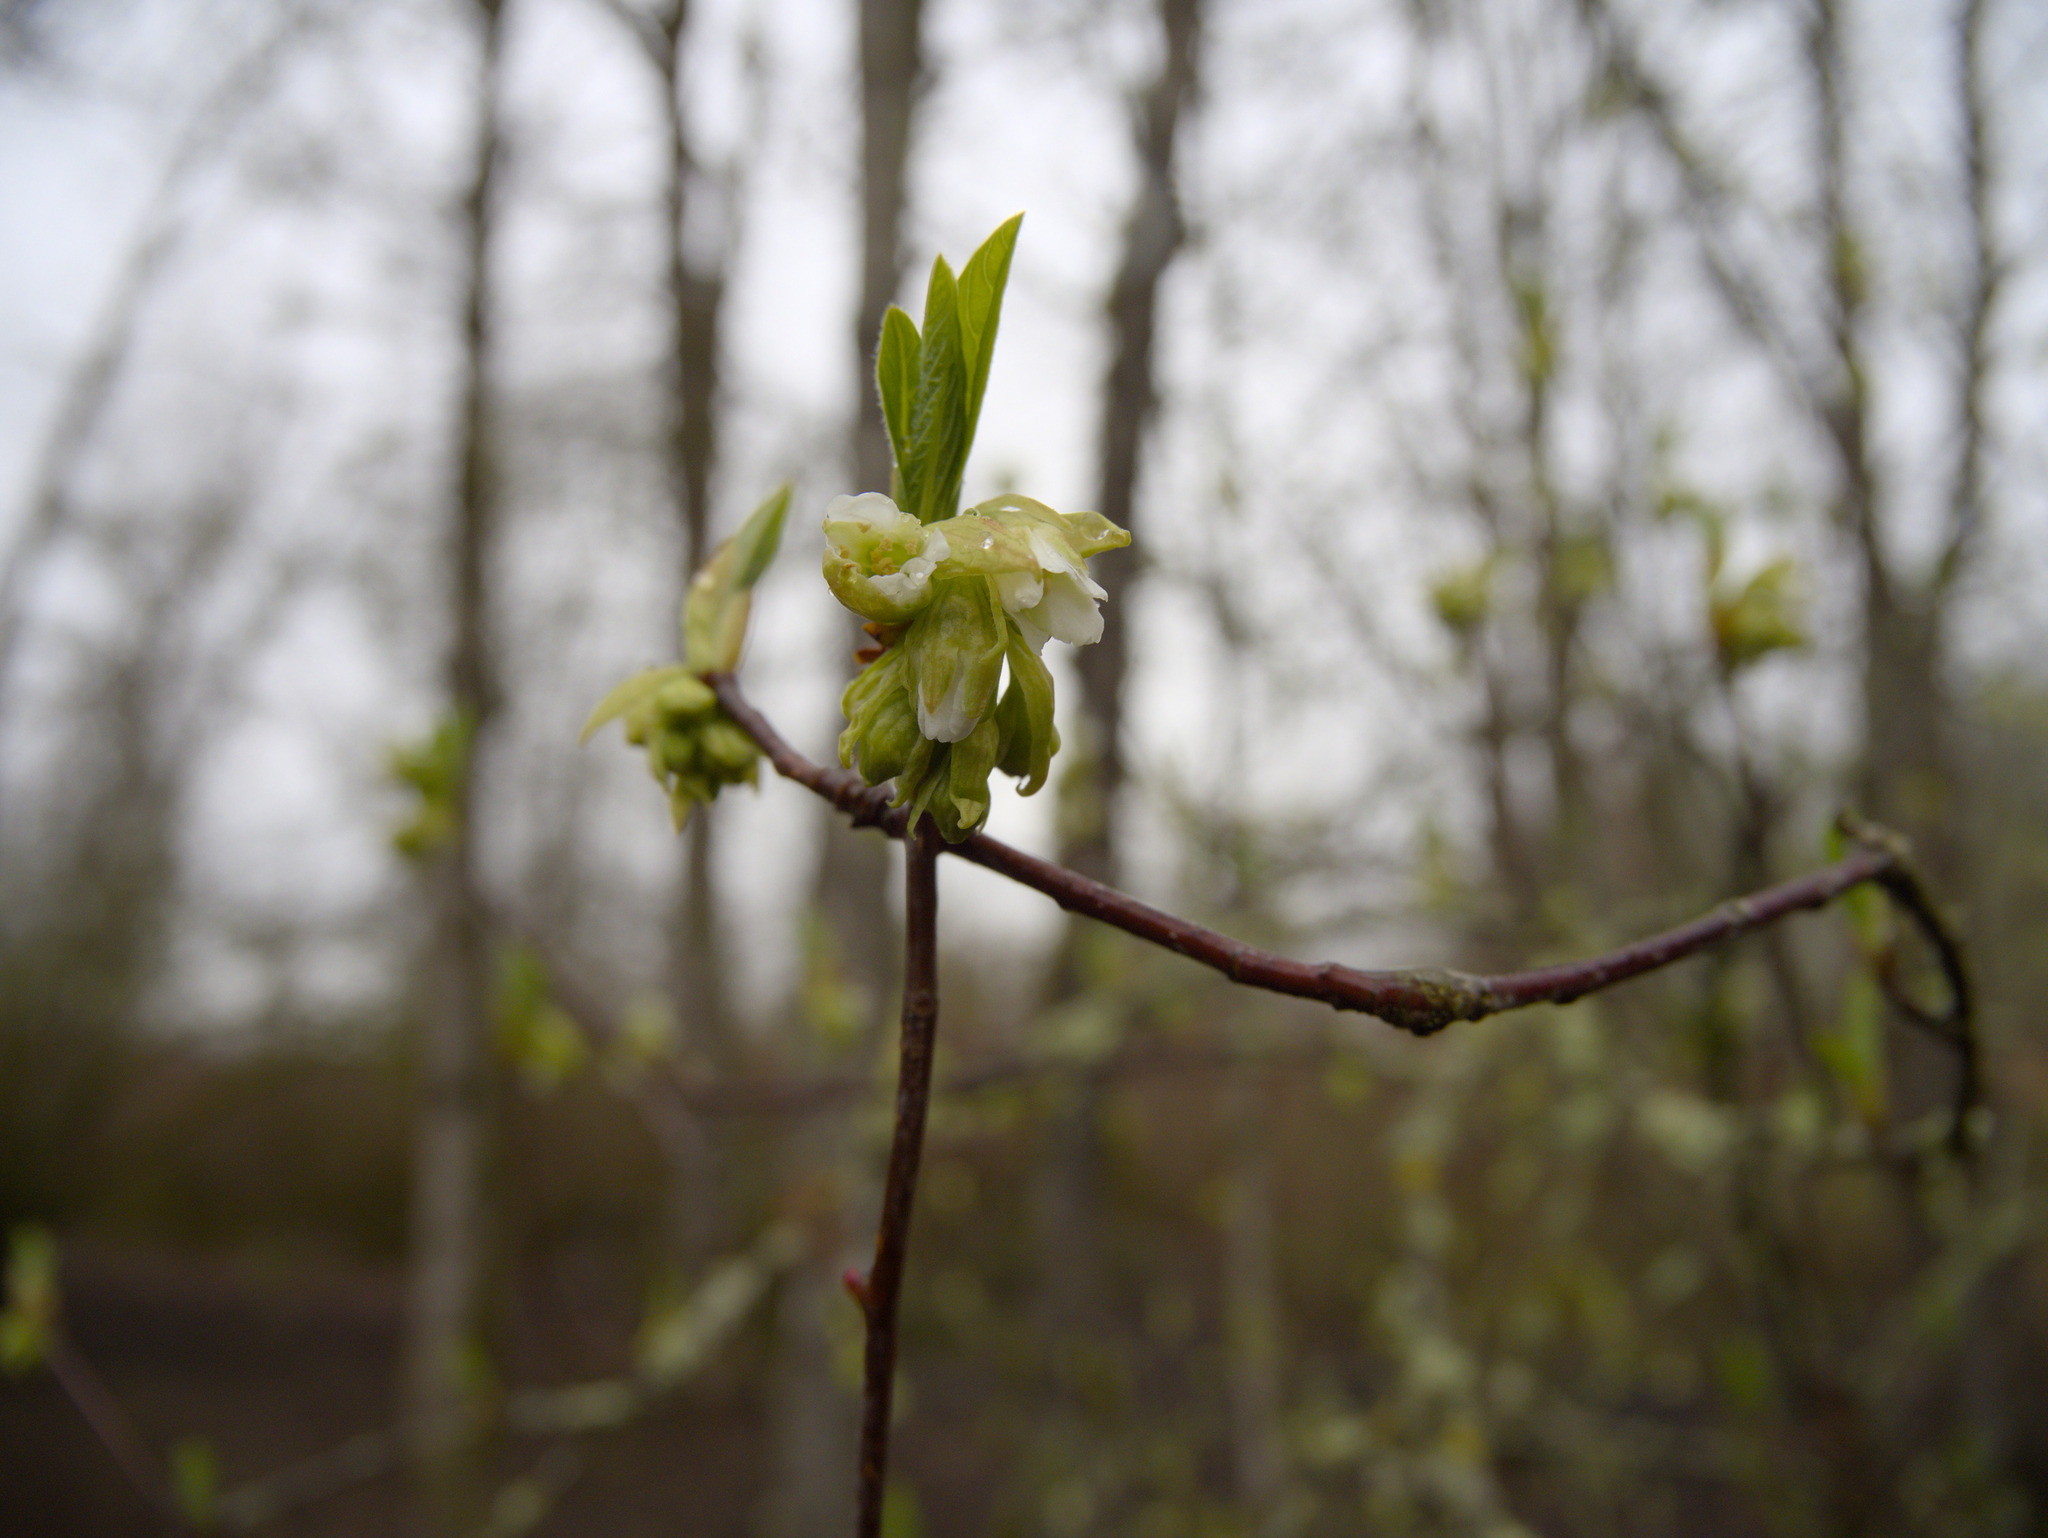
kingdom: Plantae
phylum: Tracheophyta
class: Magnoliopsida
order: Rosales
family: Rosaceae
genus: Oemleria
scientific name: Oemleria cerasiformis
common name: Osoberry
